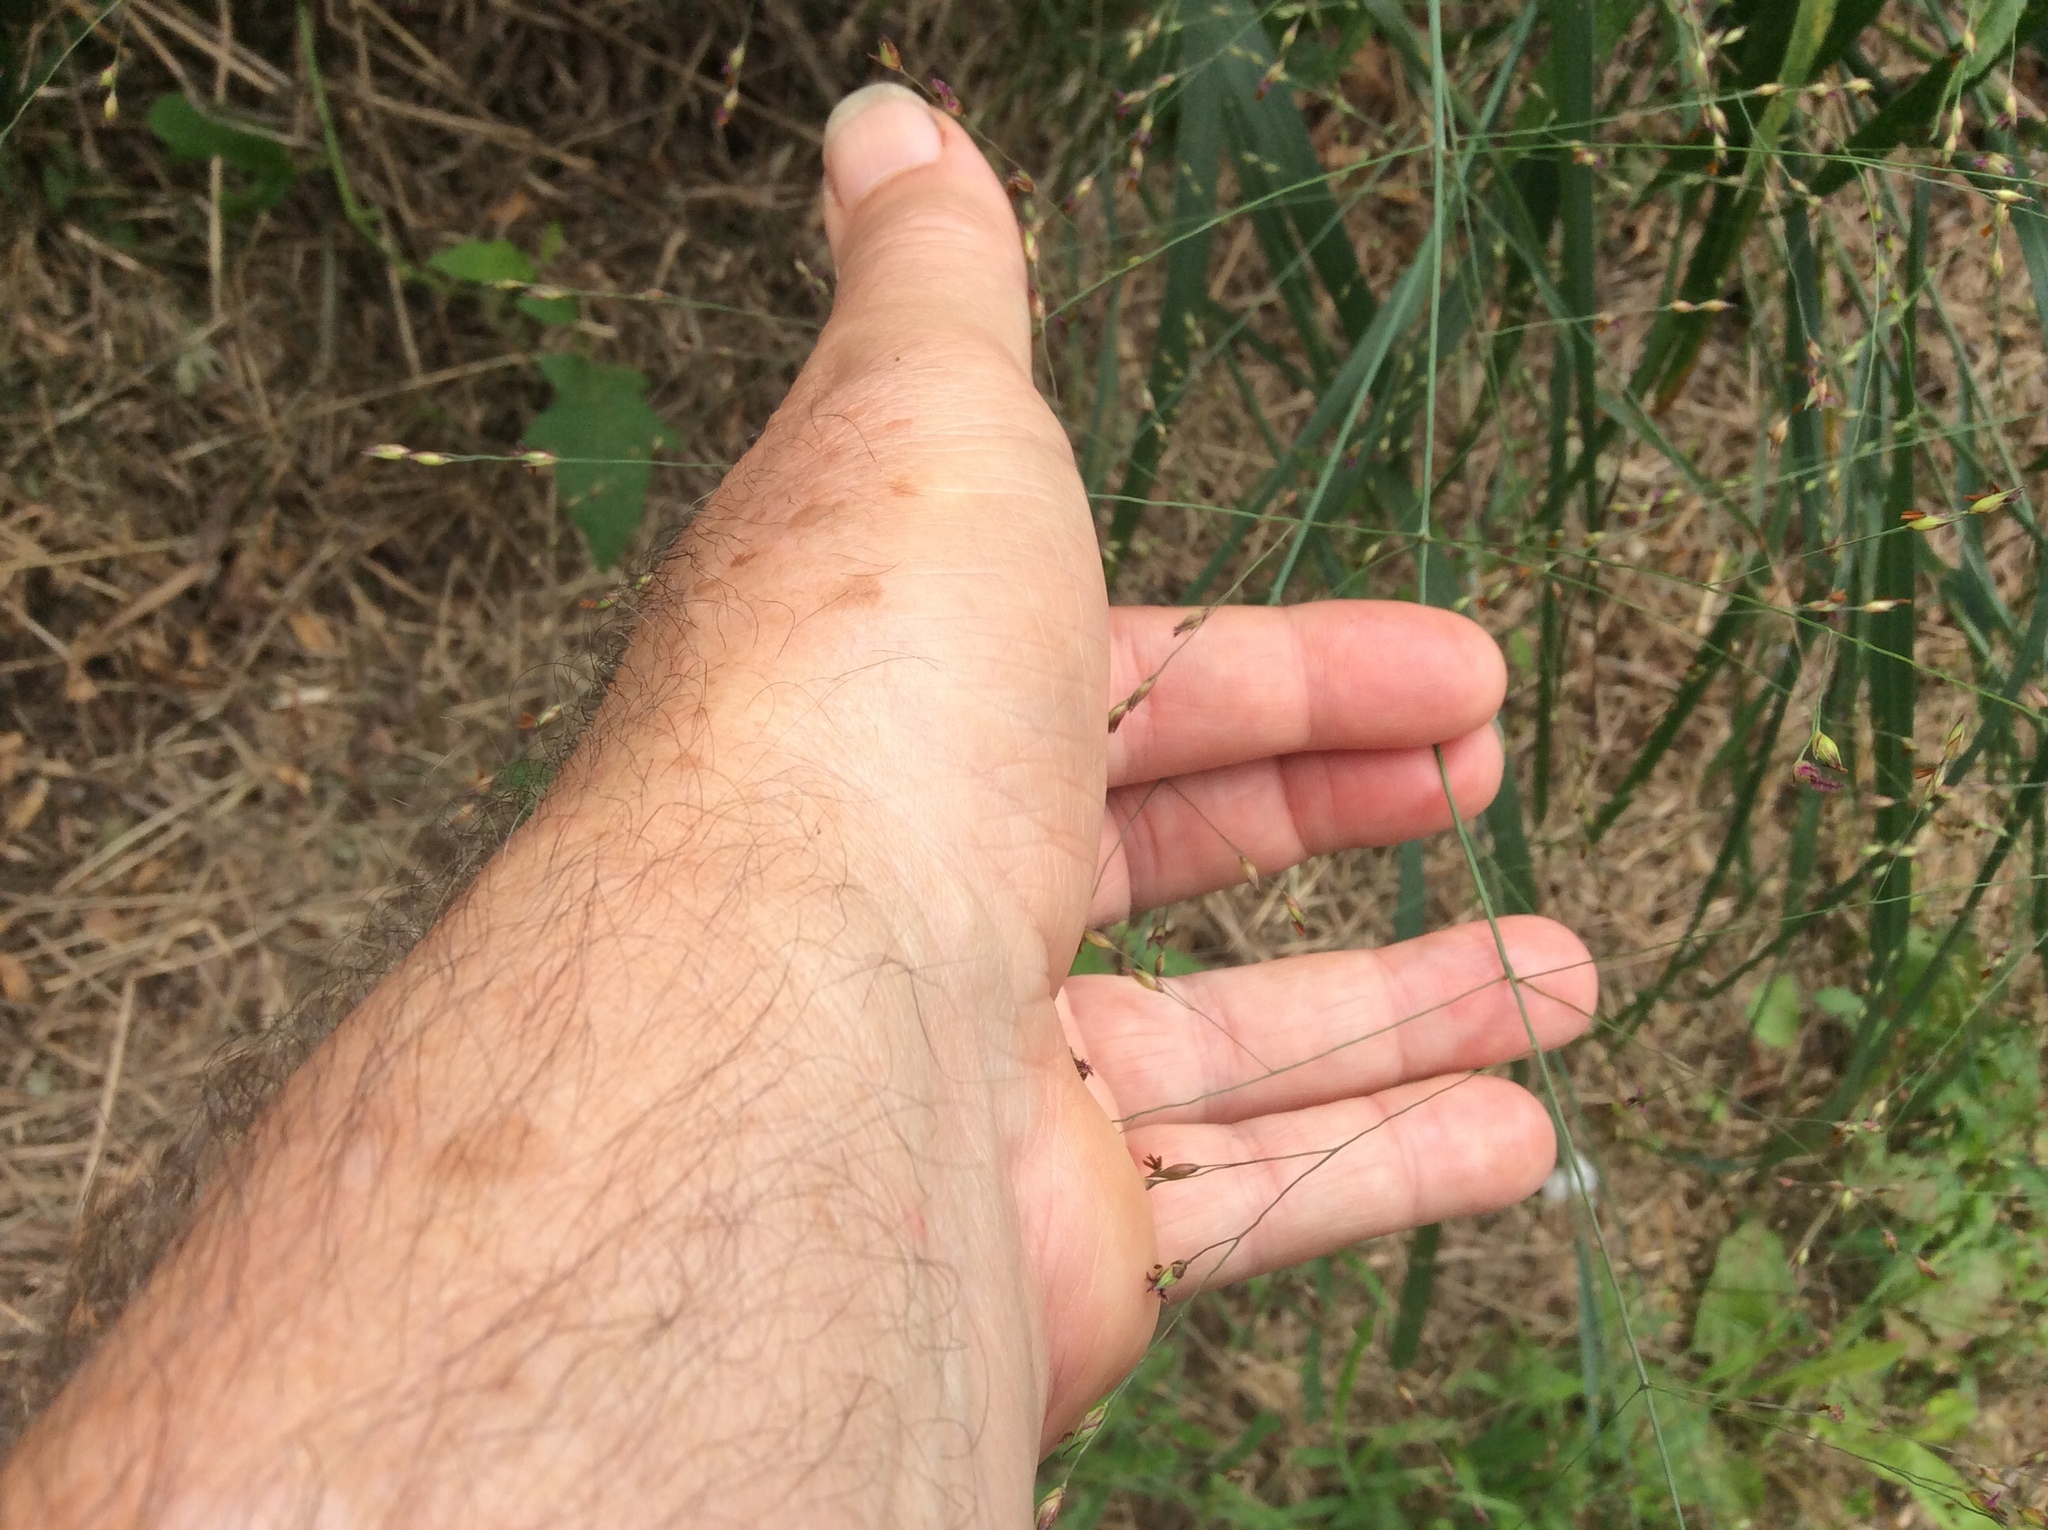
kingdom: Plantae
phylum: Tracheophyta
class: Liliopsida
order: Poales
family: Poaceae
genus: Panicum
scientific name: Panicum virgatum
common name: Switchgrass
